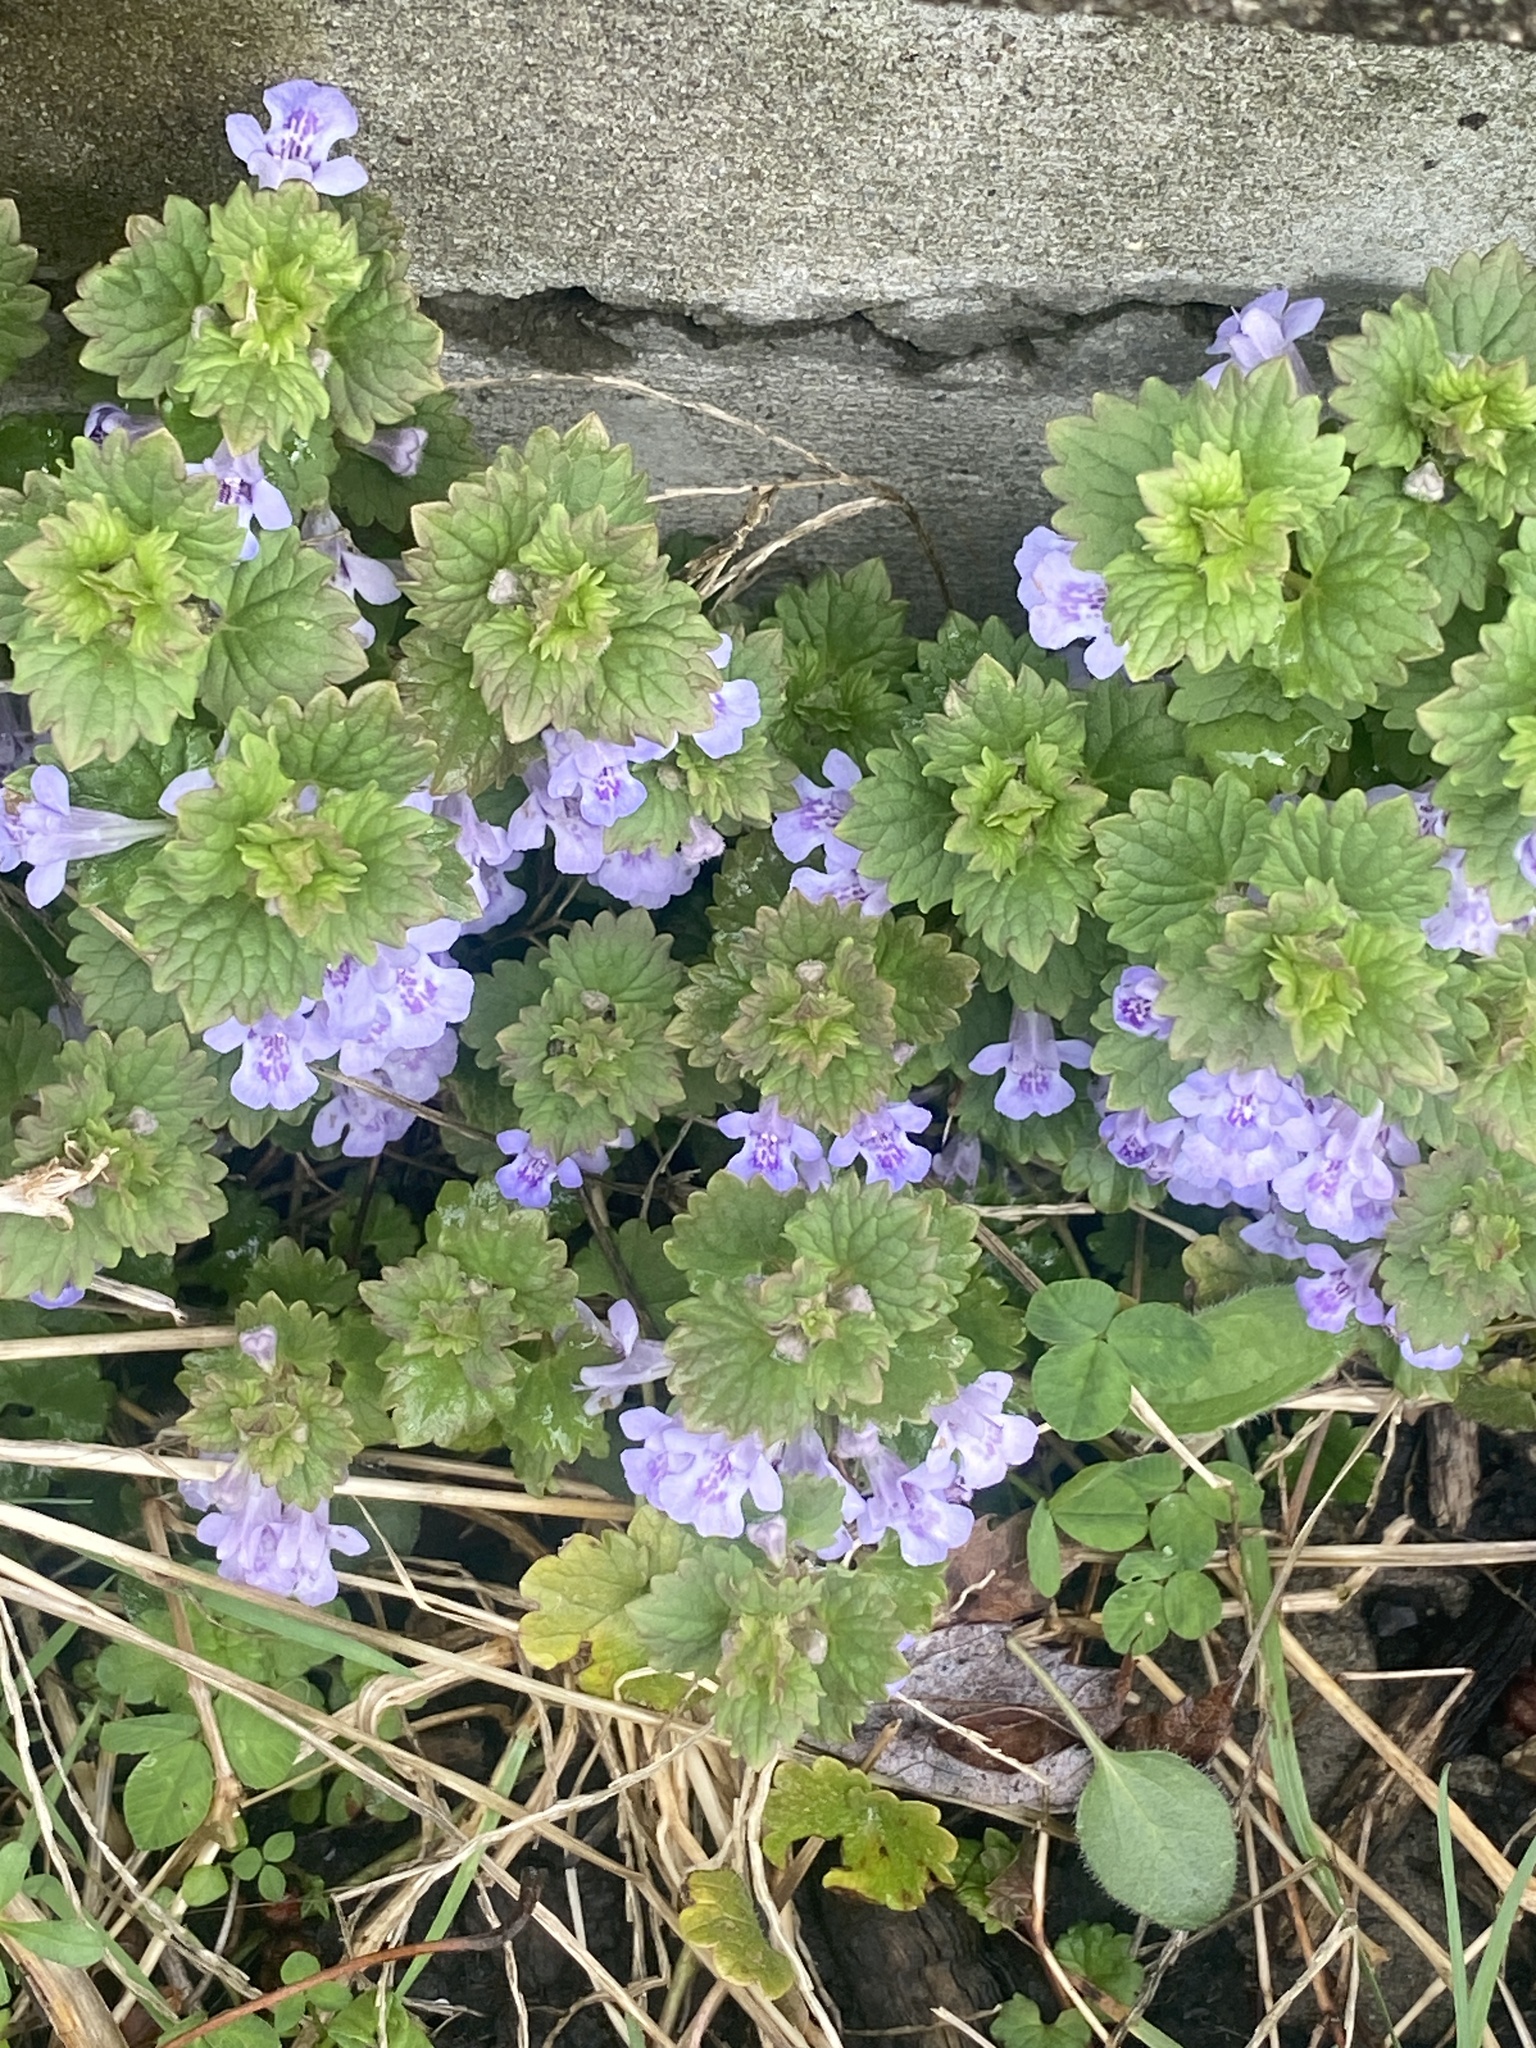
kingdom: Plantae
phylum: Tracheophyta
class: Magnoliopsida
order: Lamiales
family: Lamiaceae
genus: Glechoma
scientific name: Glechoma hederacea
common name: Ground ivy
